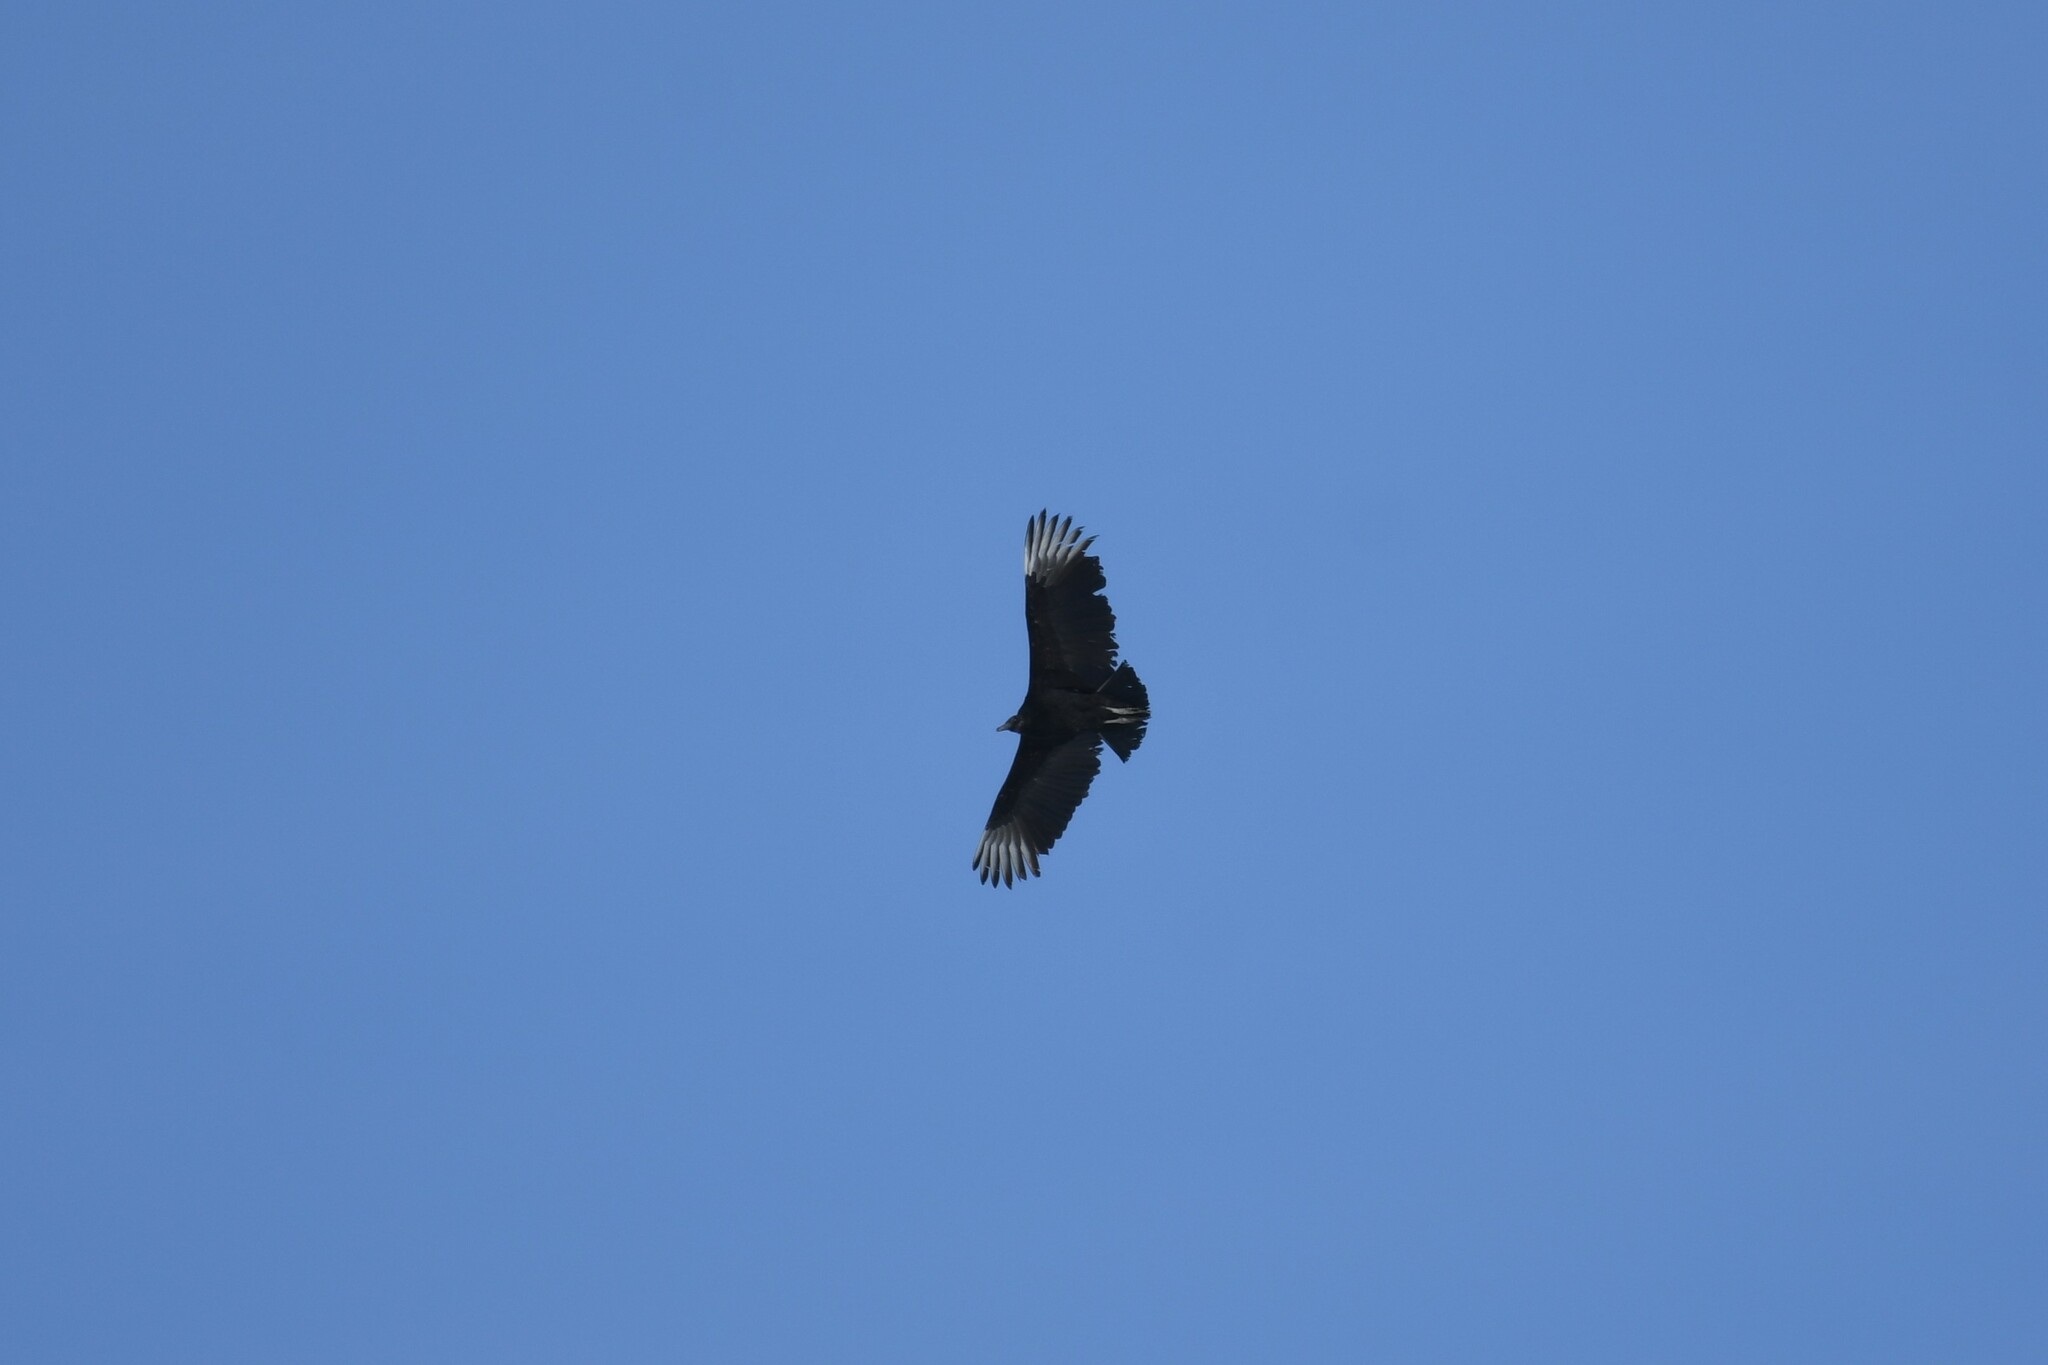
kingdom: Animalia
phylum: Chordata
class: Aves
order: Accipitriformes
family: Cathartidae
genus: Coragyps
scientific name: Coragyps atratus
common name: Black vulture
